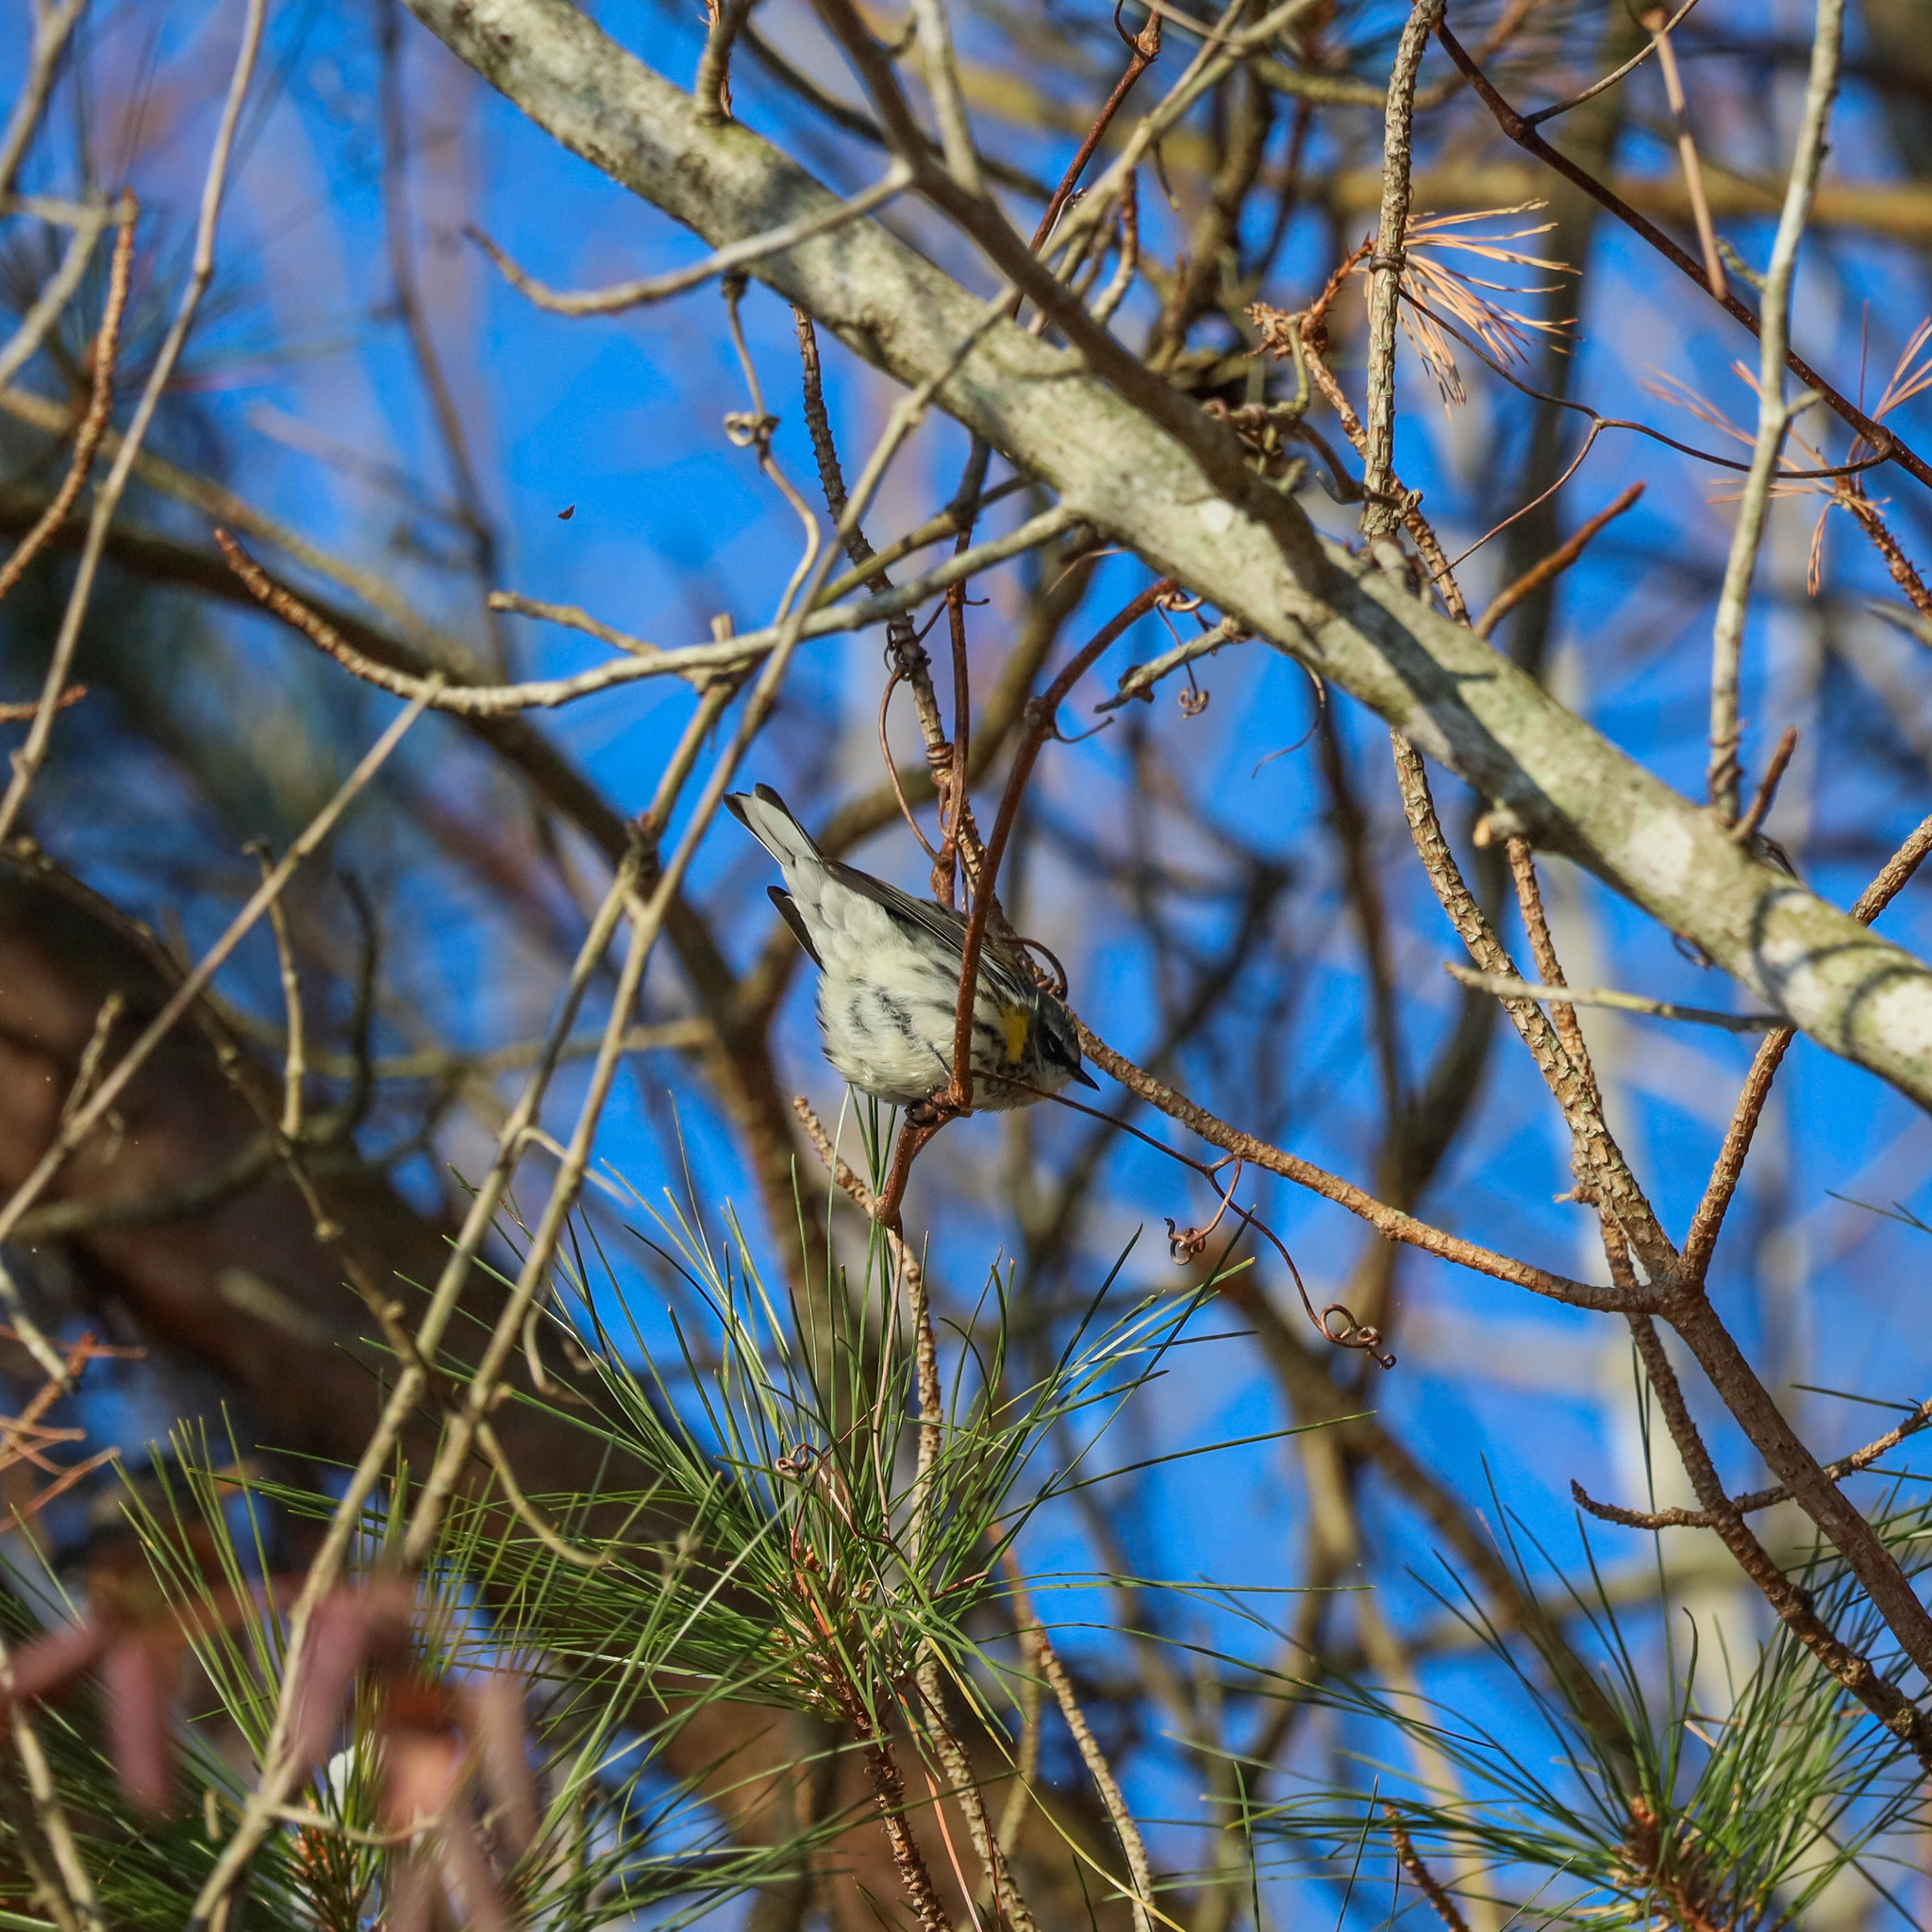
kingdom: Animalia
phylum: Chordata
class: Aves
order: Passeriformes
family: Parulidae
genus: Setophaga
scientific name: Setophaga coronata
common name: Myrtle warbler
